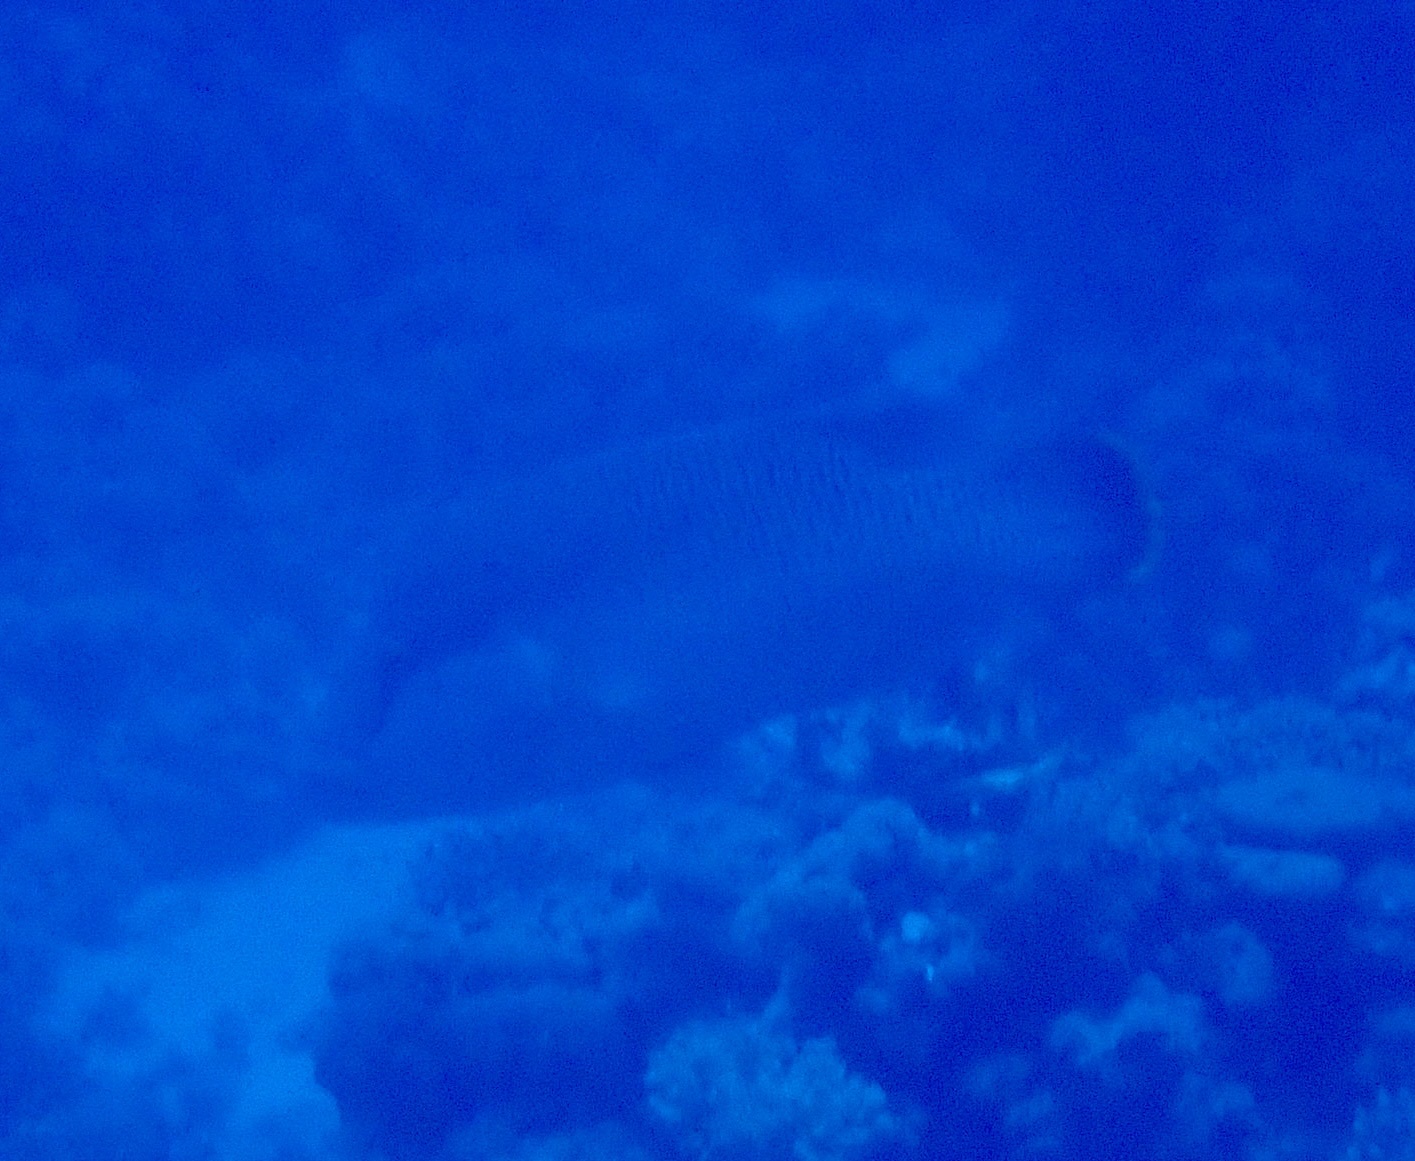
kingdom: Animalia
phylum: Chordata
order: Perciformes
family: Labridae
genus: Cheilinus
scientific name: Cheilinus undulatus
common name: Humphead wrasse
